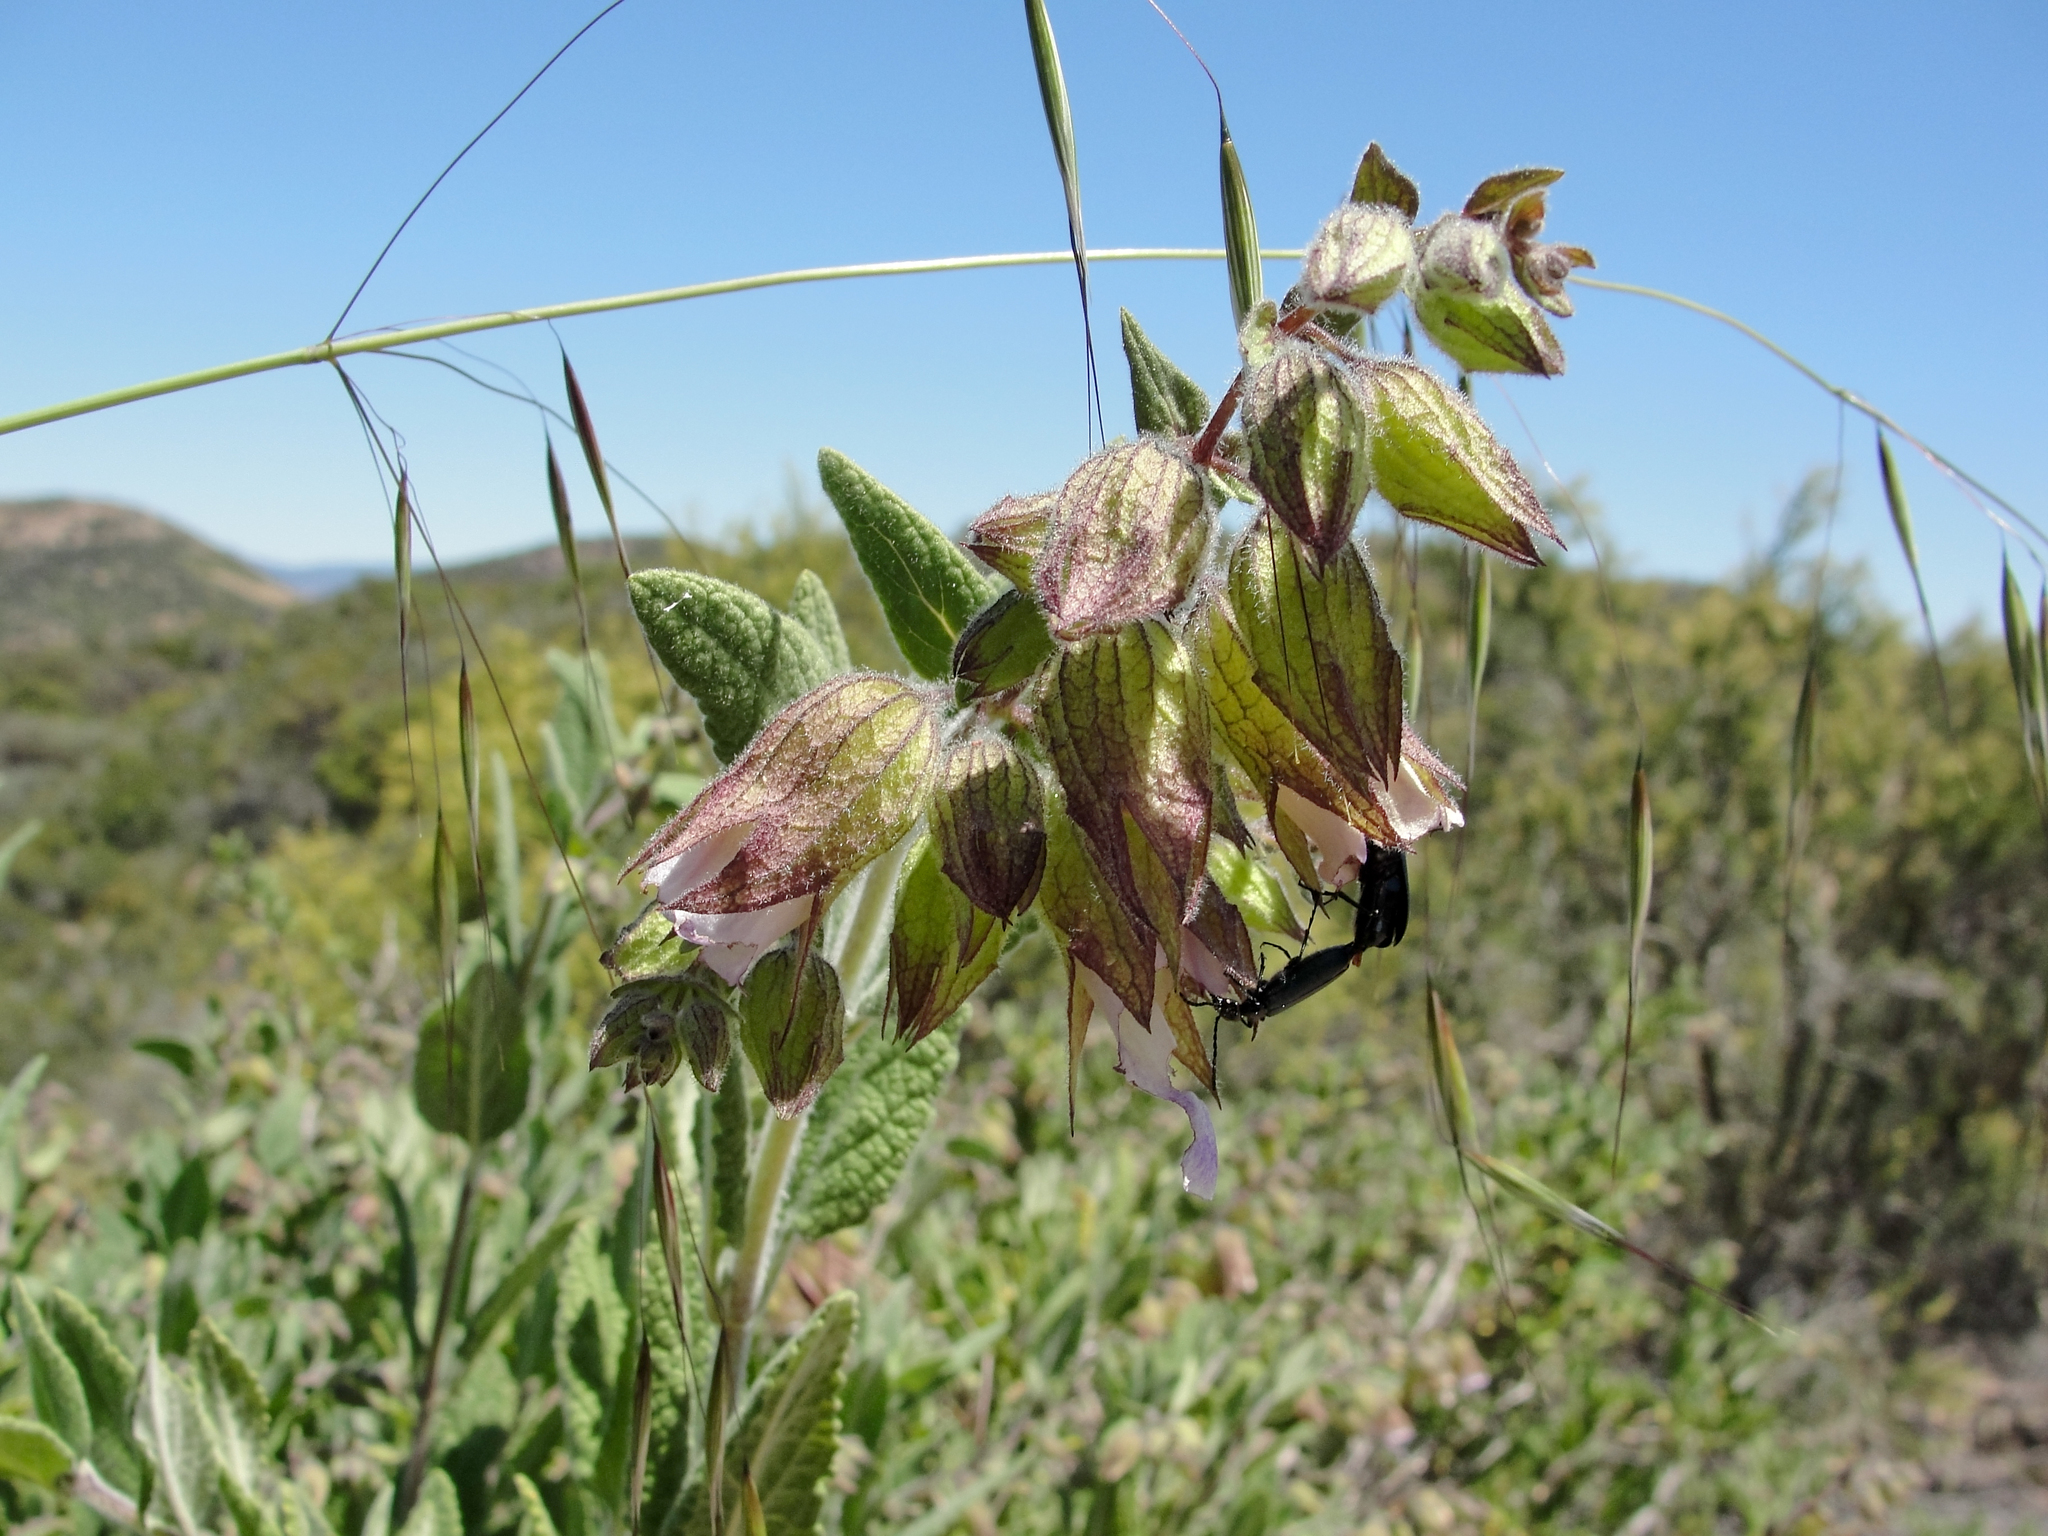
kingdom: Plantae
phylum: Tracheophyta
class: Magnoliopsida
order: Lamiales
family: Lamiaceae
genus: Lepechinia
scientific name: Lepechinia calycina
